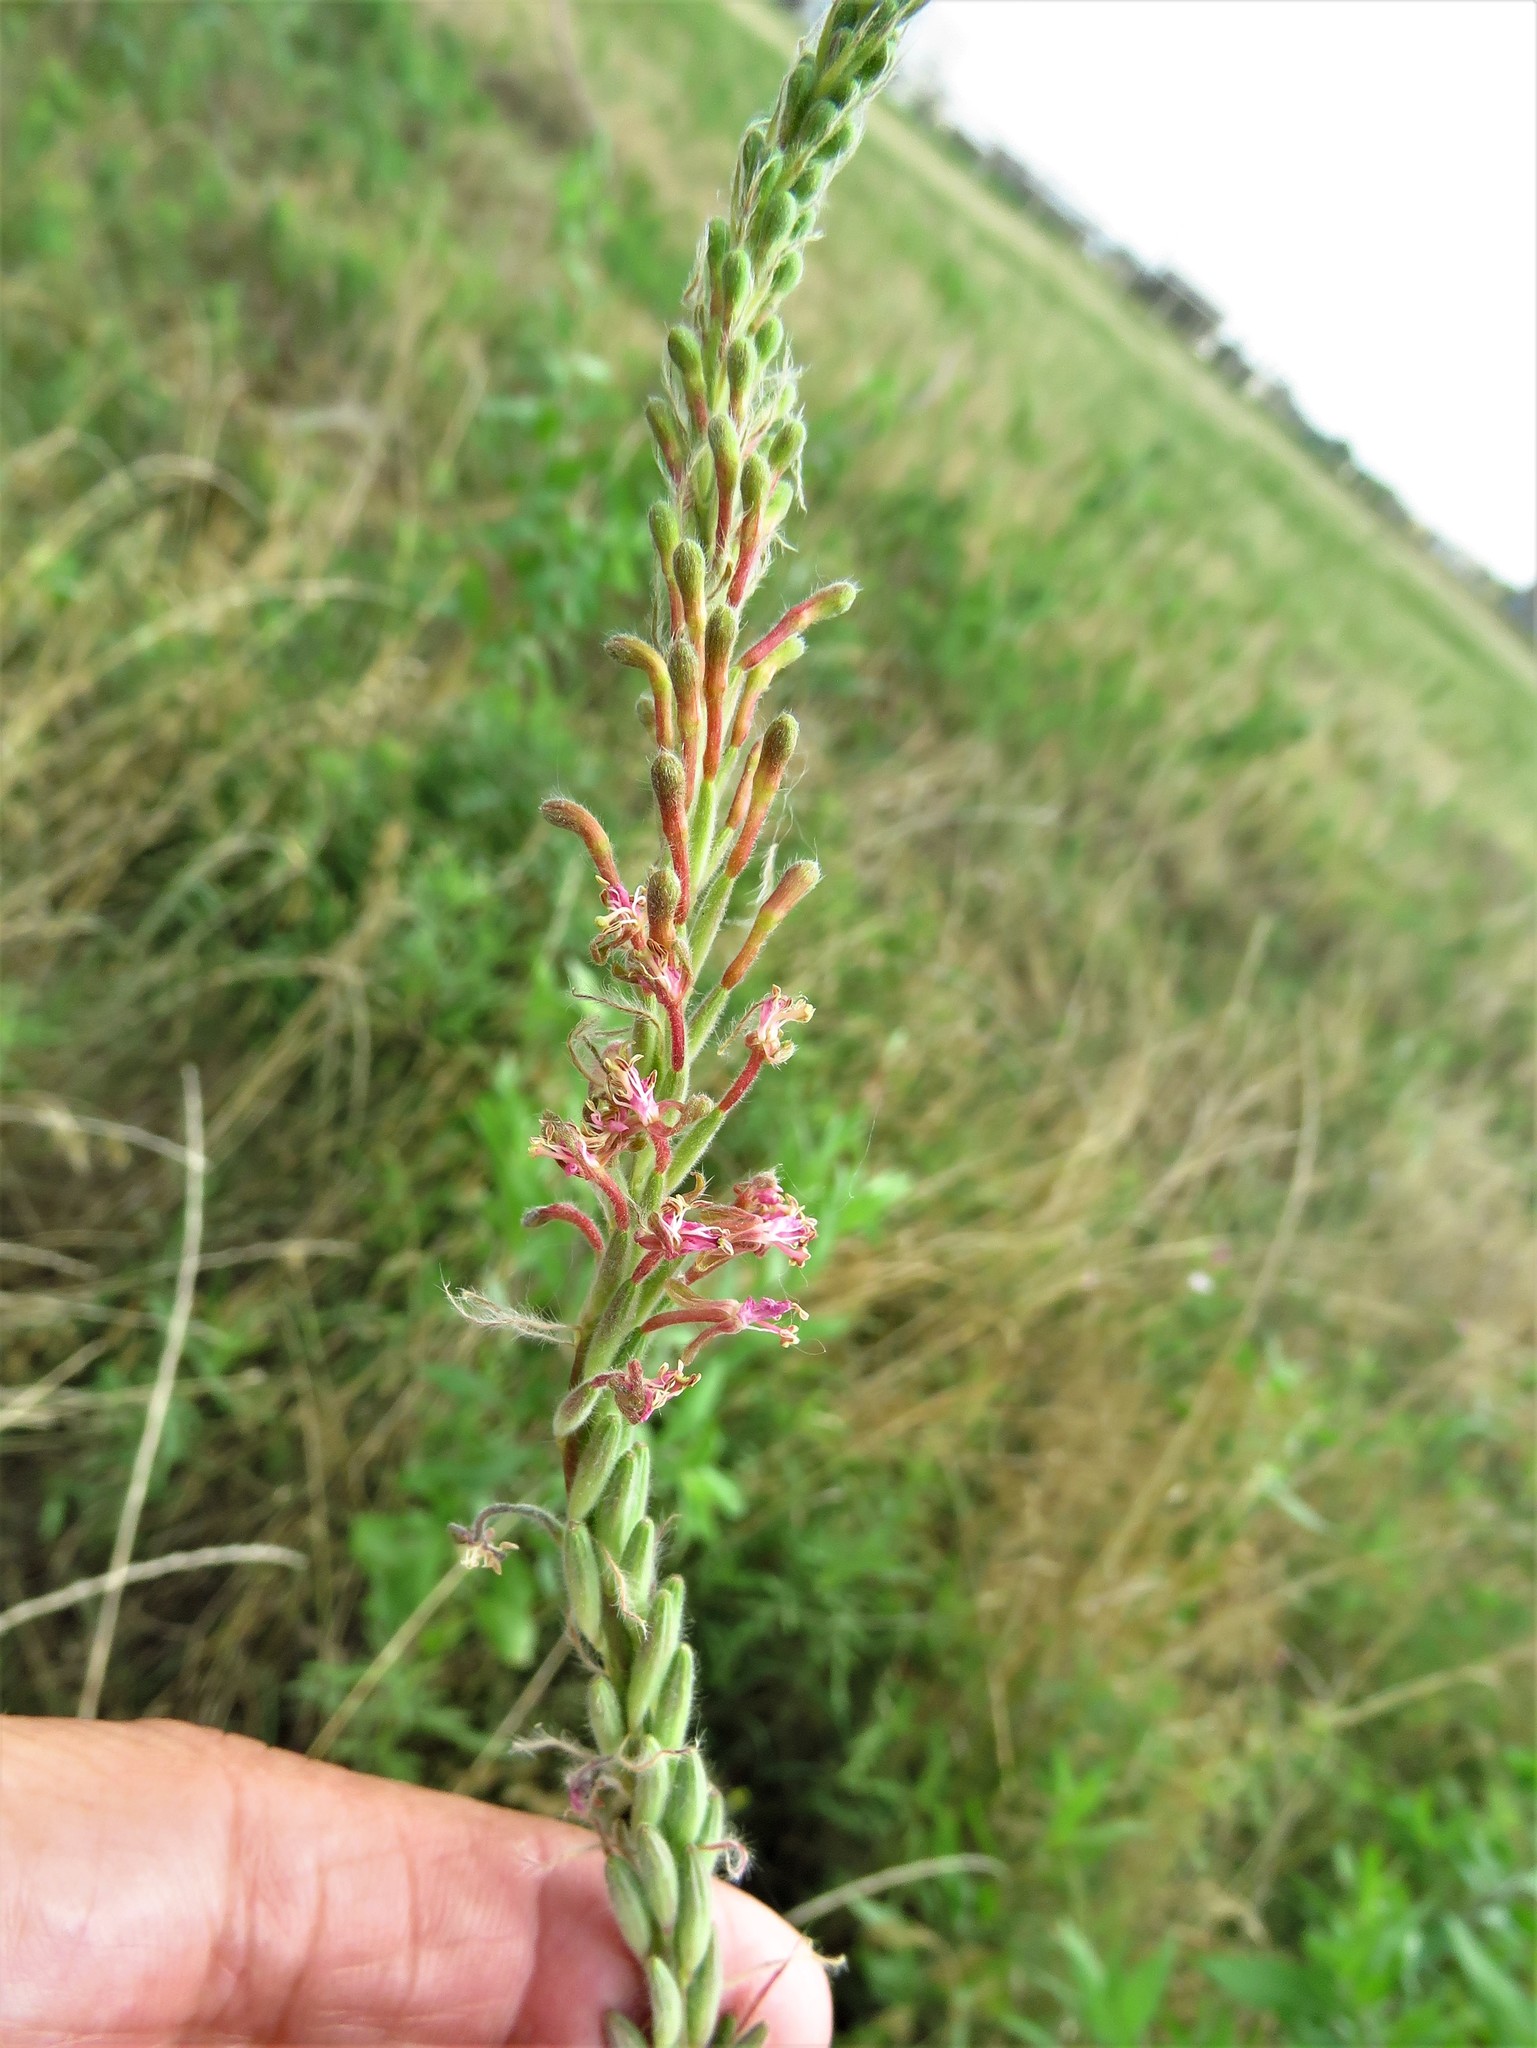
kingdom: Plantae
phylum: Tracheophyta
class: Magnoliopsida
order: Myrtales
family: Onagraceae
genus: Oenothera
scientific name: Oenothera curtiflora
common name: Velvetweed
